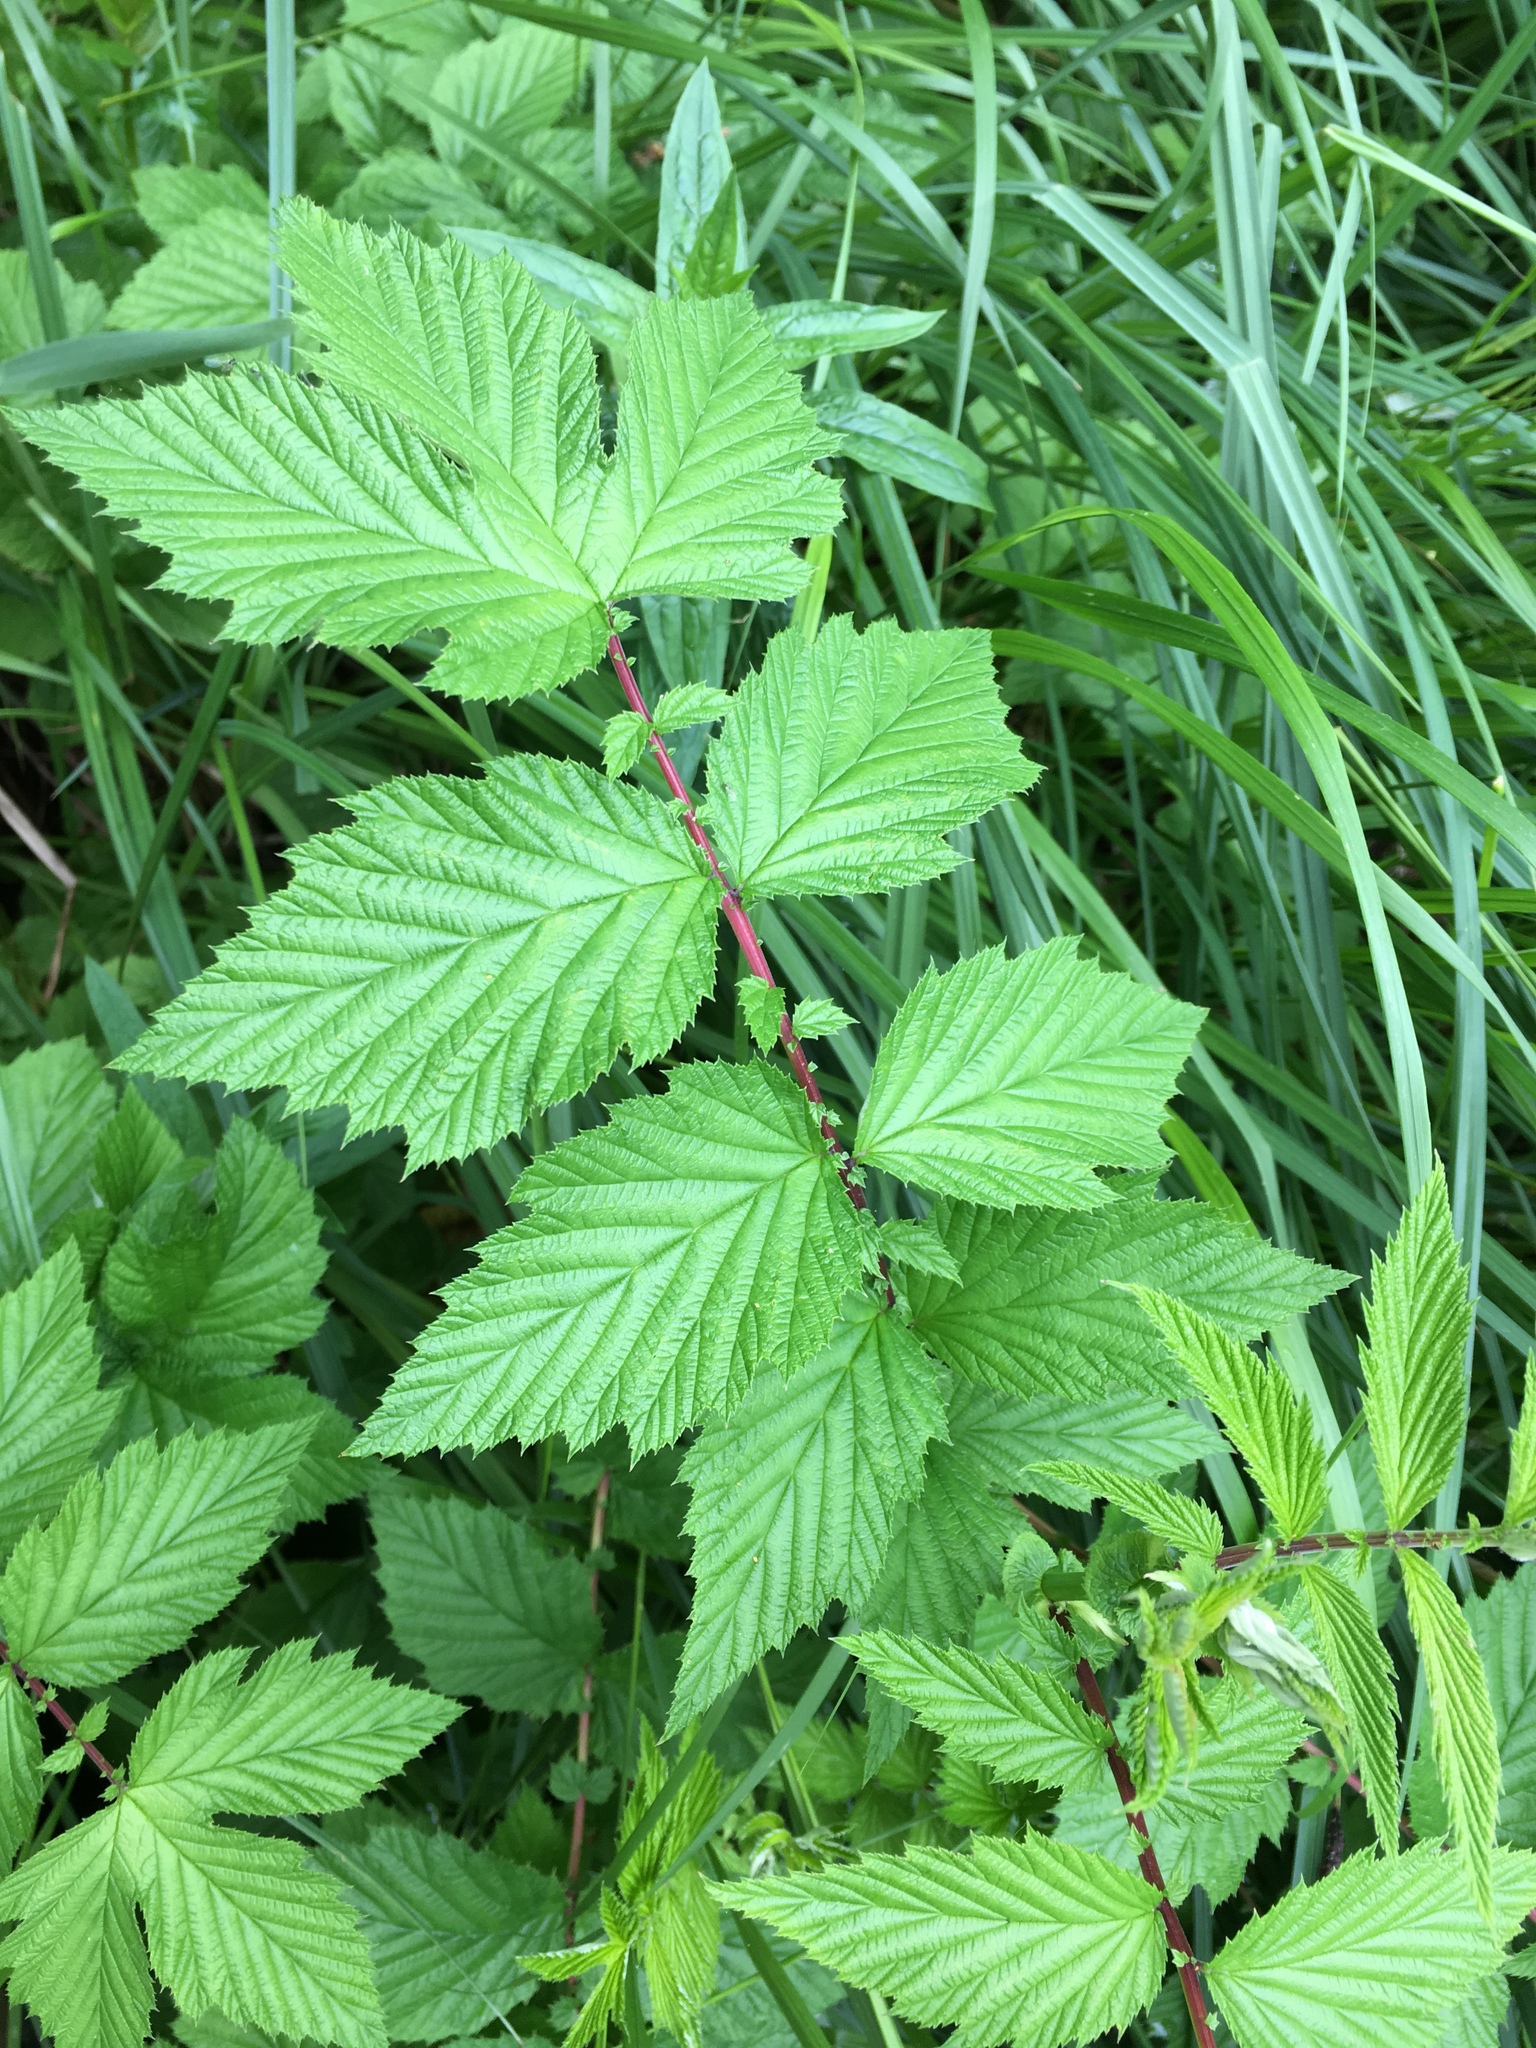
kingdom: Plantae
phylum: Tracheophyta
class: Magnoliopsida
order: Rosales
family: Rosaceae
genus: Filipendula
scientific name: Filipendula ulmaria
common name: Meadowsweet
